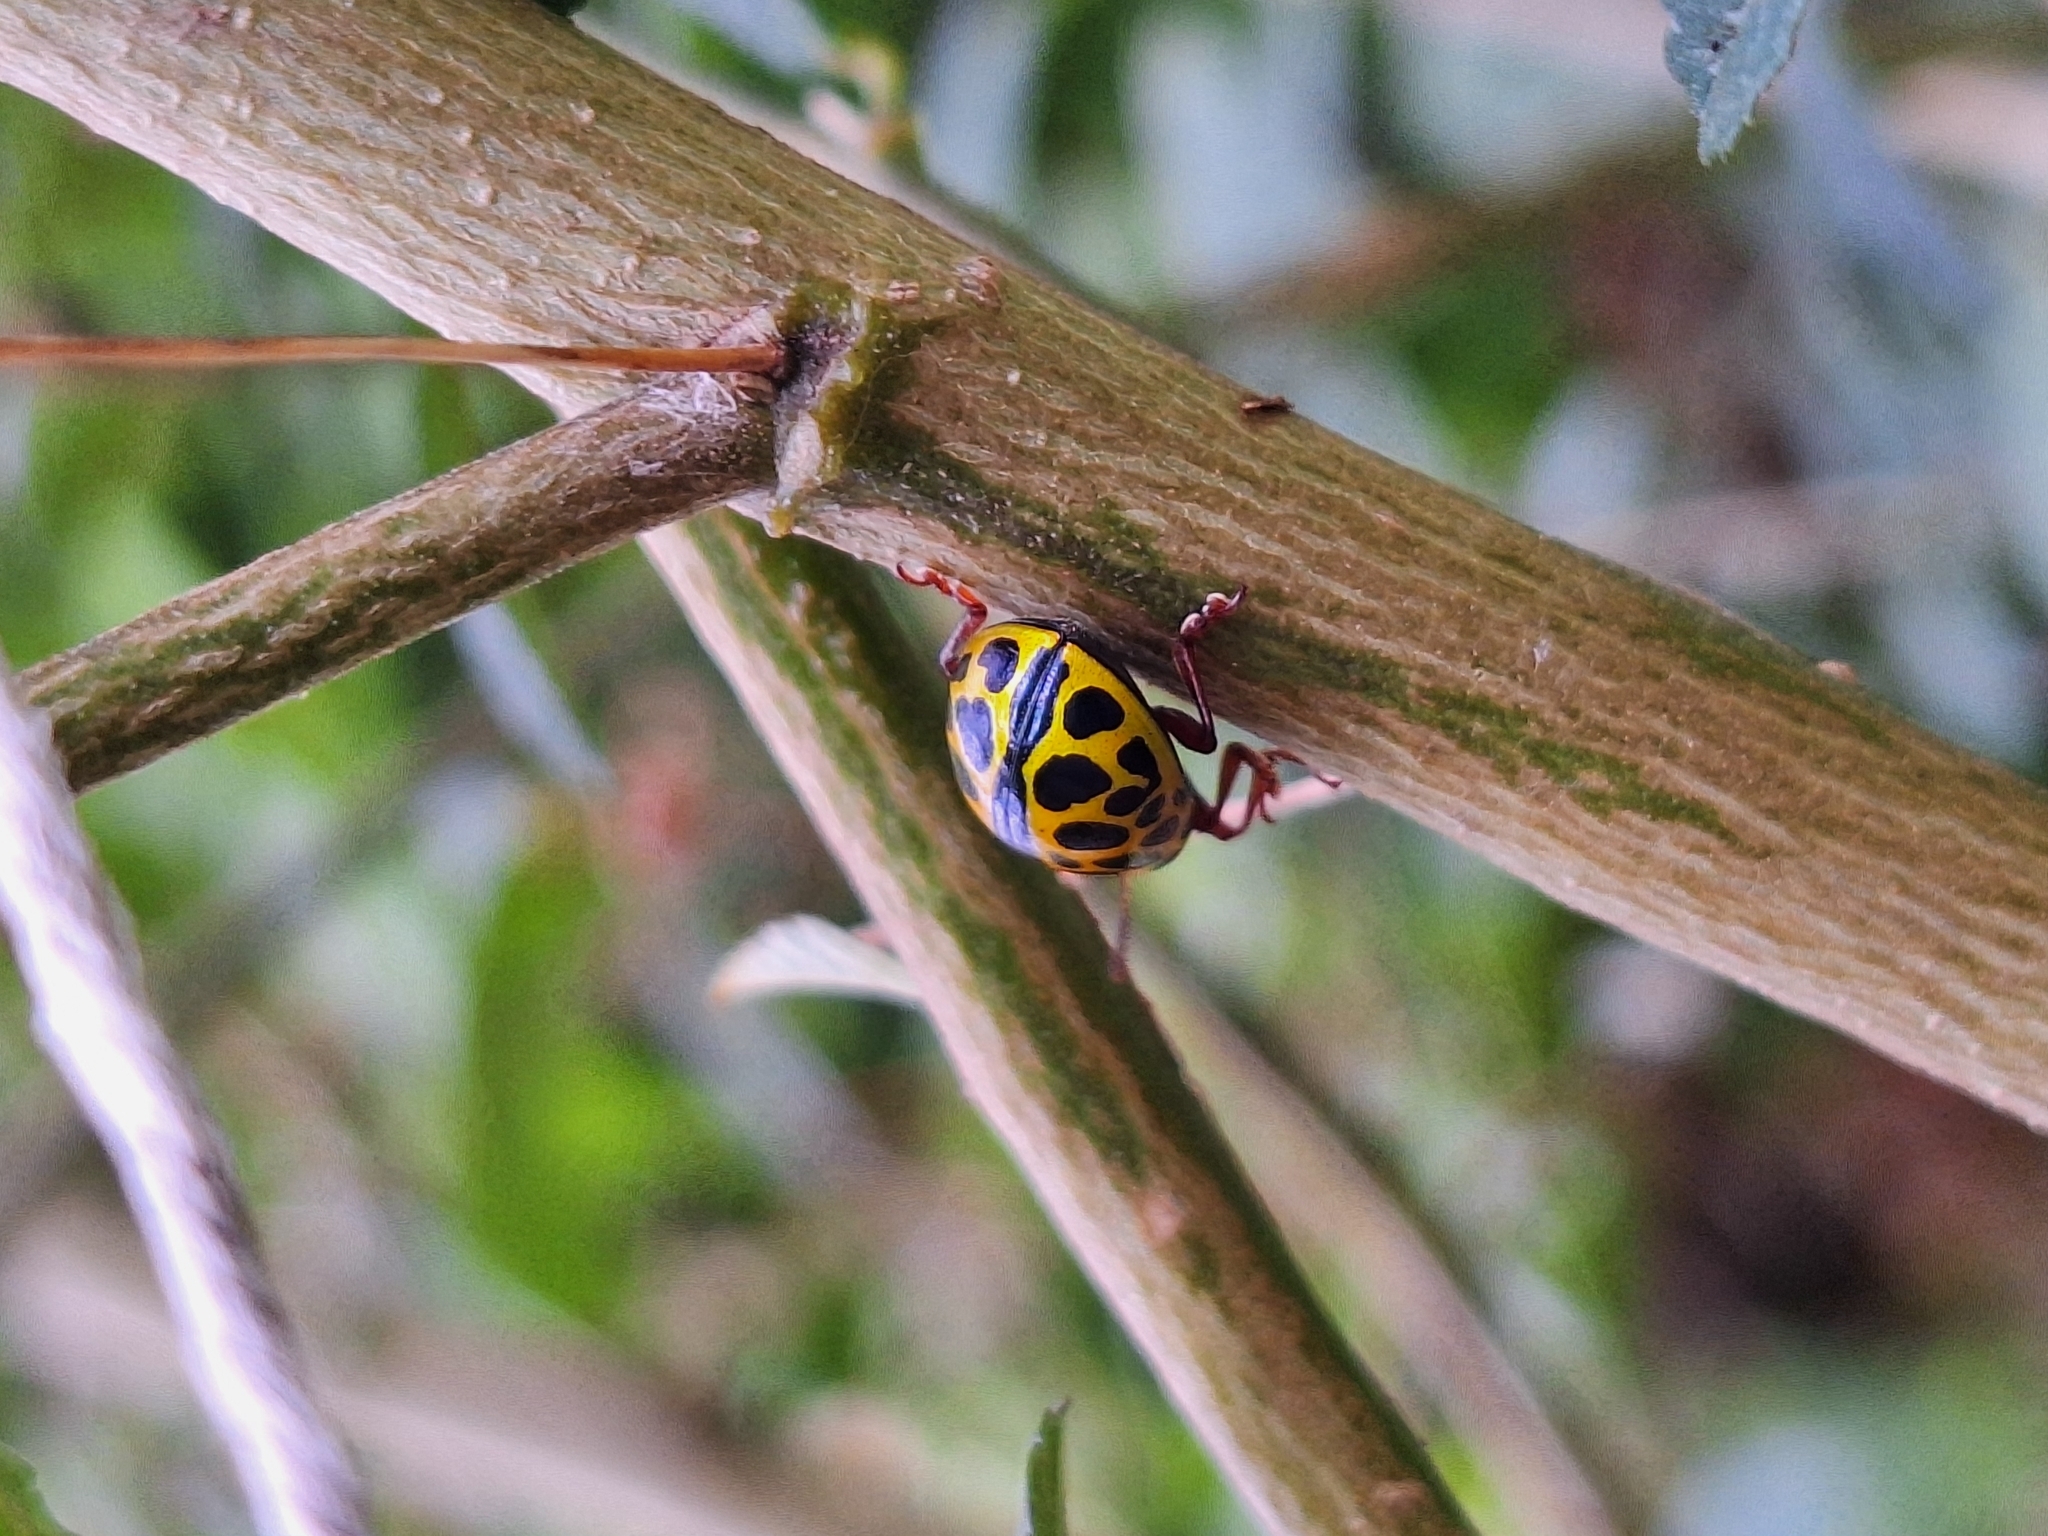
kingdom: Animalia
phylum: Arthropoda
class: Insecta
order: Coleoptera
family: Chrysomelidae
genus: Calligrapha
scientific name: Calligrapha polyspila
